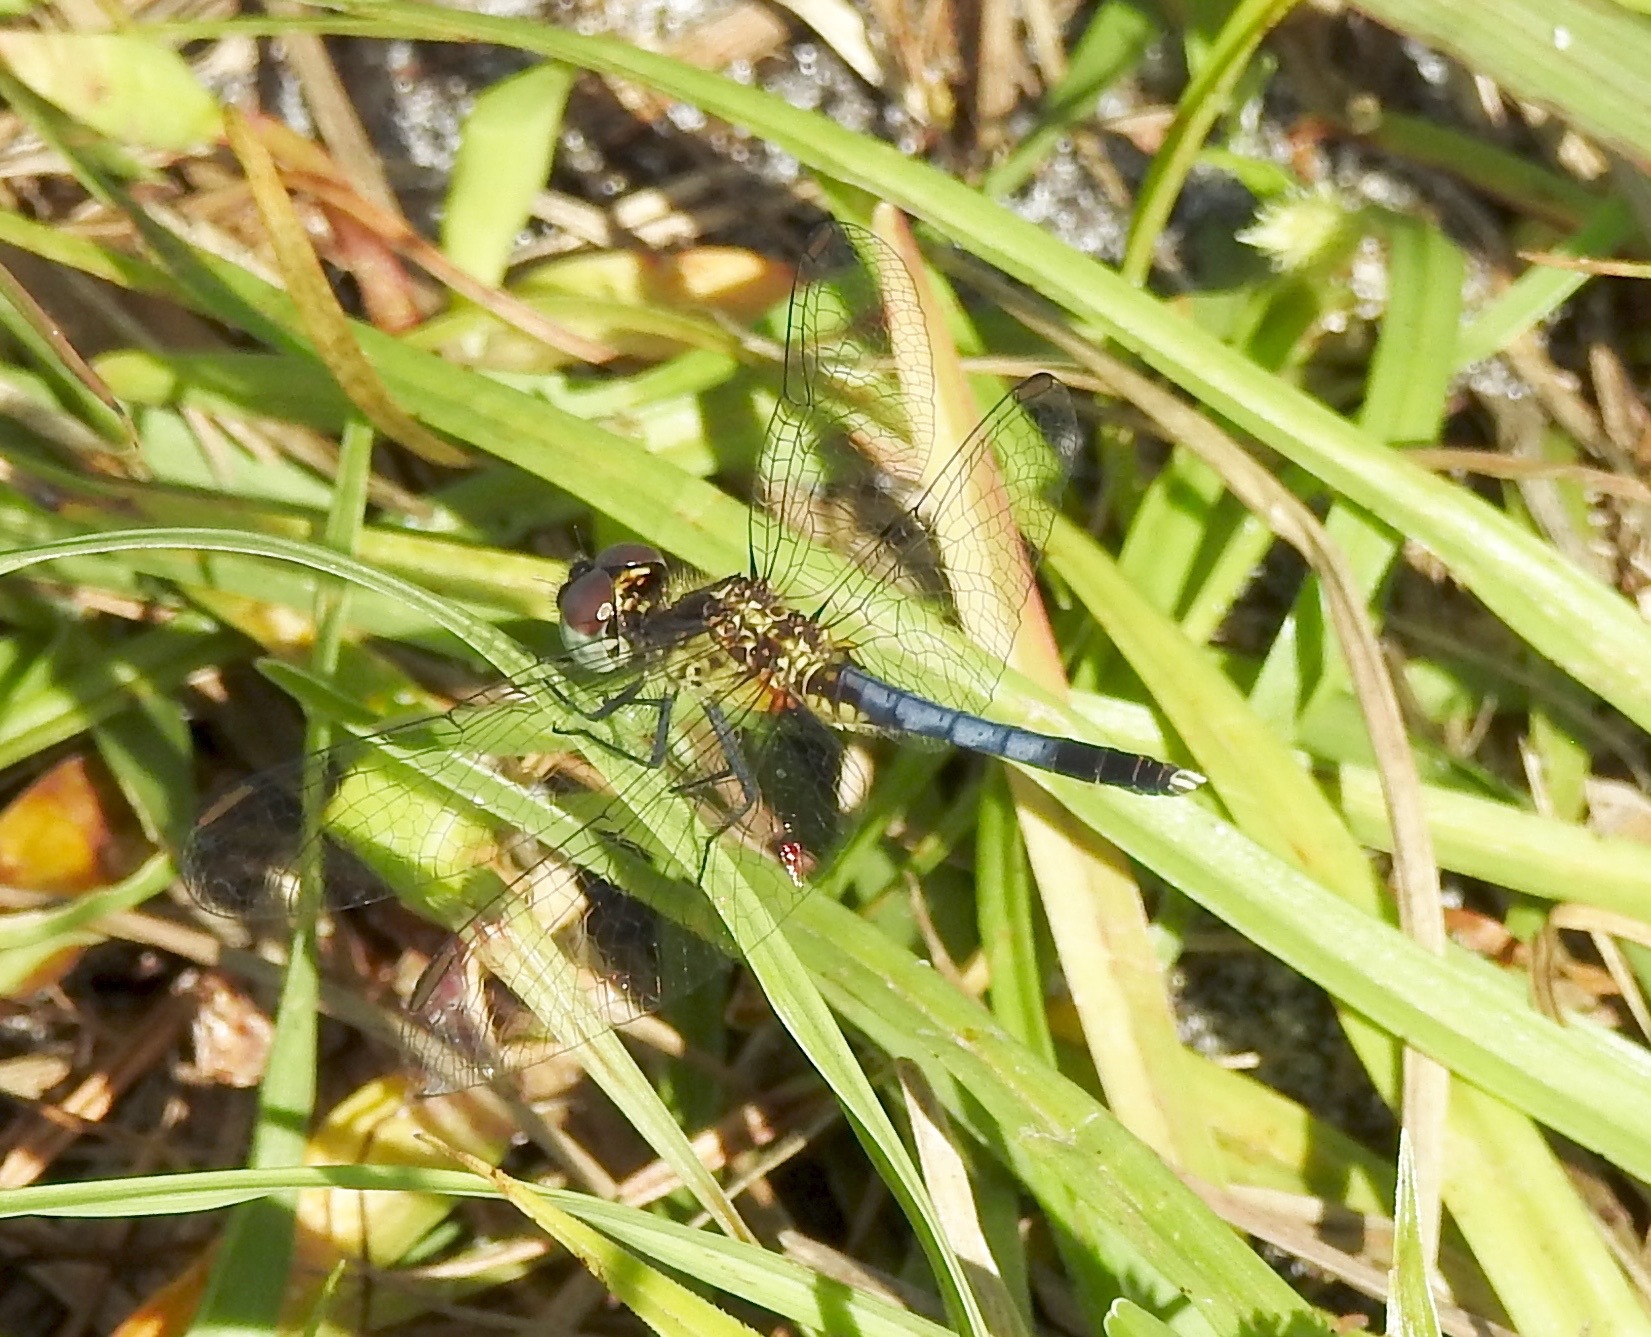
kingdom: Animalia
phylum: Arthropoda
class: Insecta
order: Odonata
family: Libellulidae
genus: Erythrodiplax
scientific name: Erythrodiplax minuscula
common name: Little blue dragonlet
